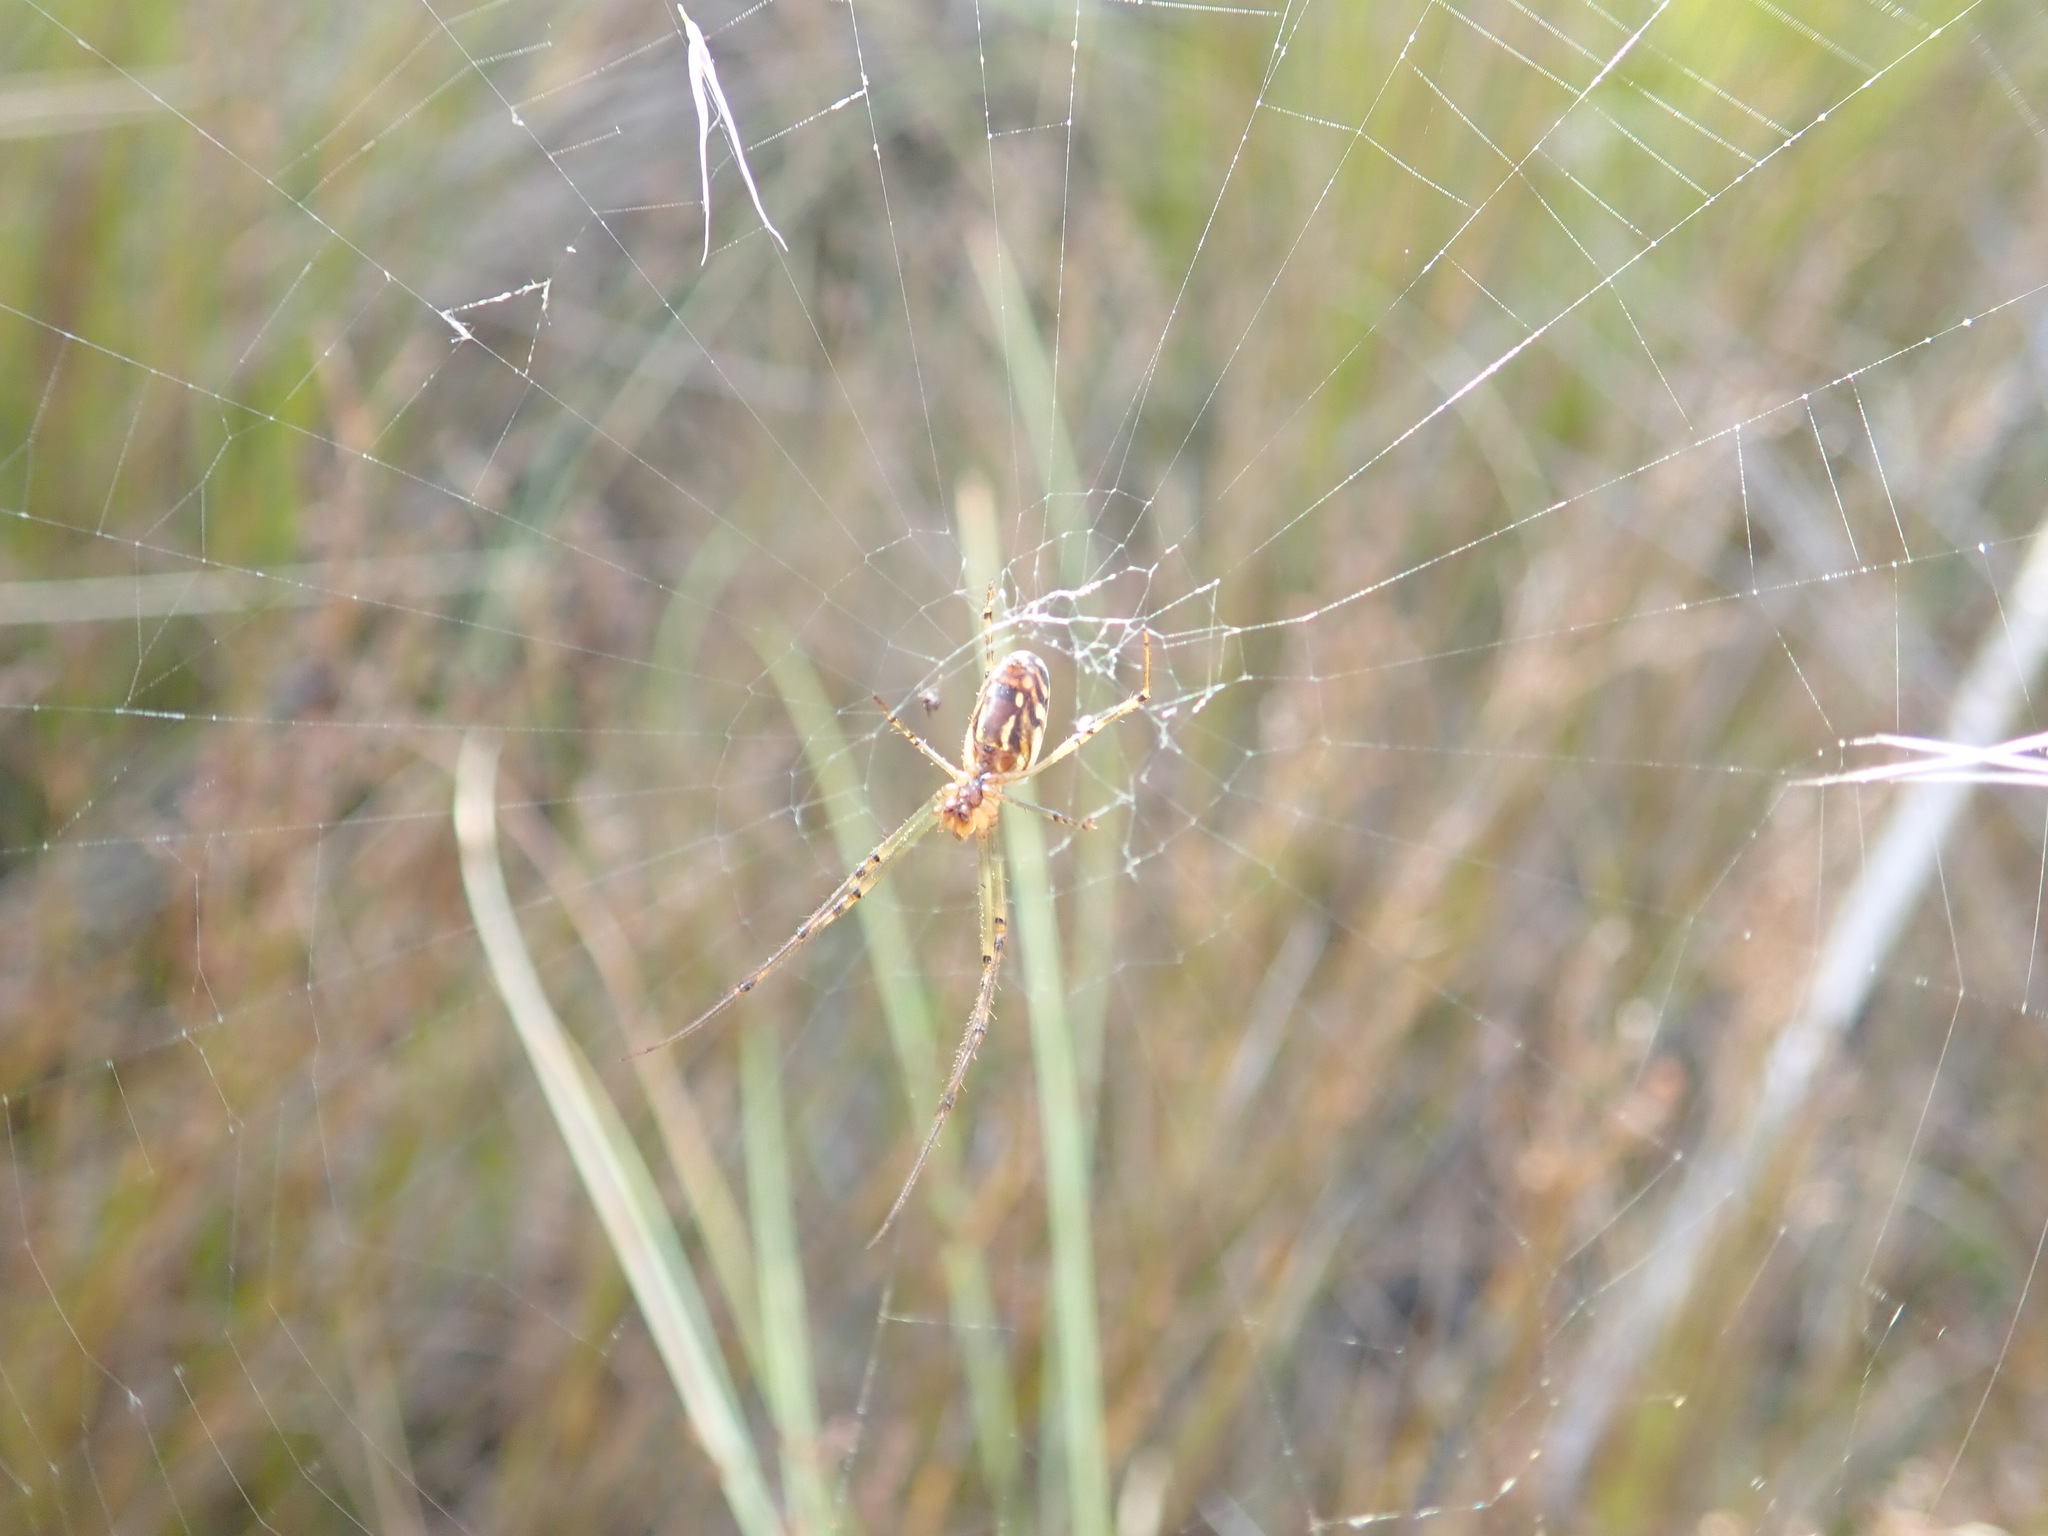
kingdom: Animalia
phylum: Arthropoda
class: Arachnida
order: Araneae
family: Tetragnathidae
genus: Leucauge
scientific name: Leucauge dromedaria
